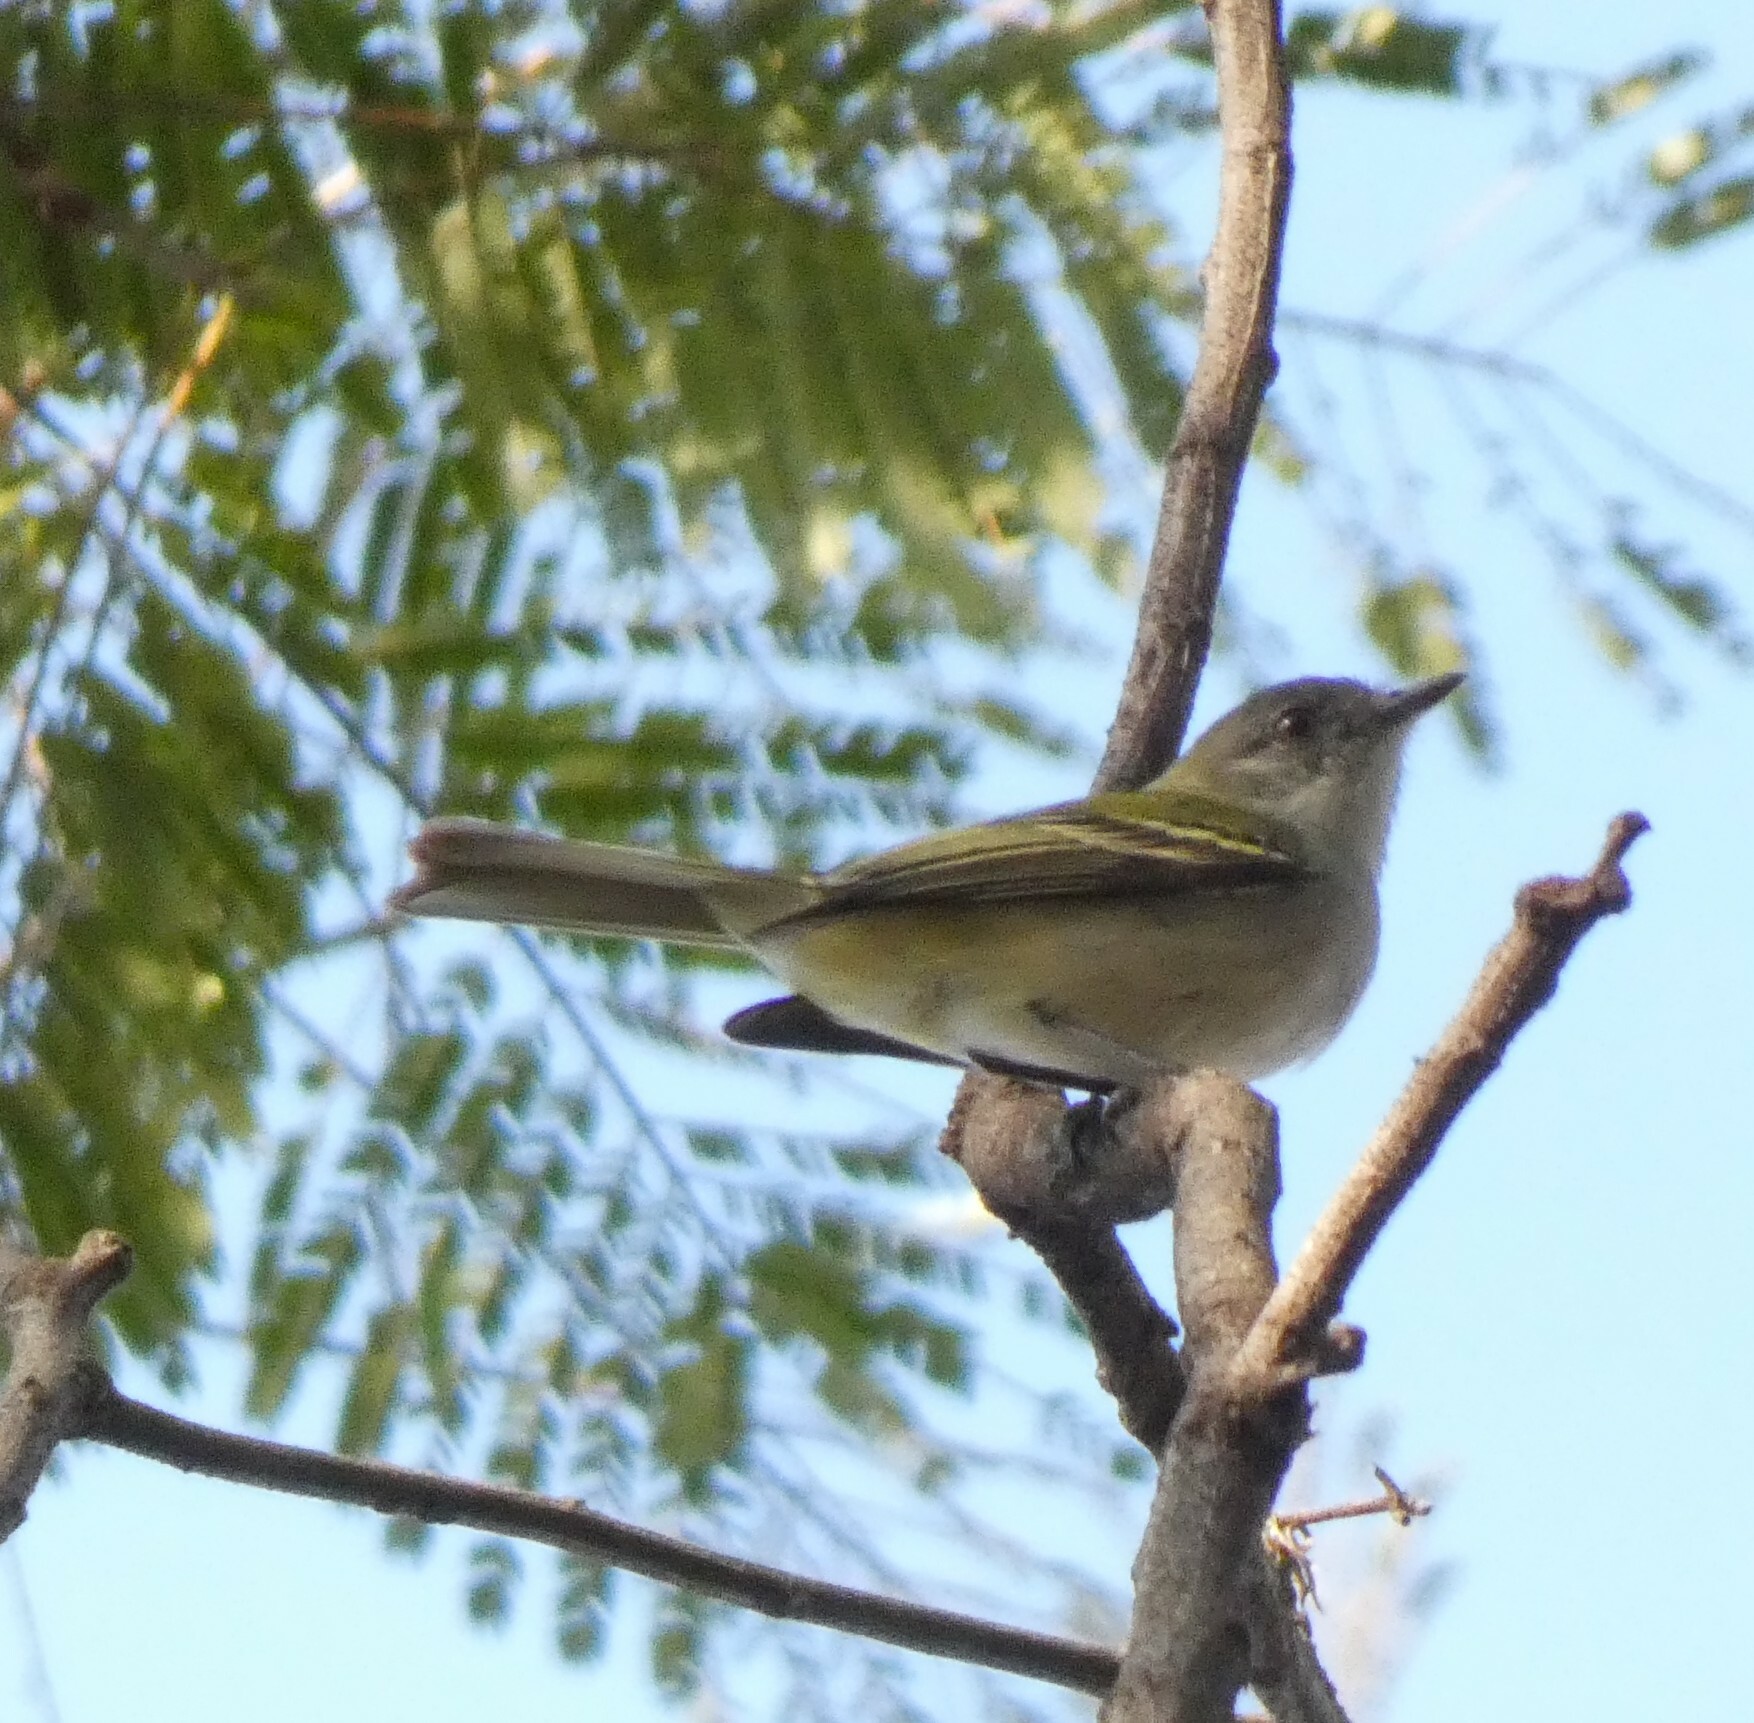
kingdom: Animalia
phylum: Chordata
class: Aves
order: Passeriformes
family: Tyrannidae
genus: Tolmomyias
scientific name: Tolmomyias sulphurescens
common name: Yellow-olive flycatcher
